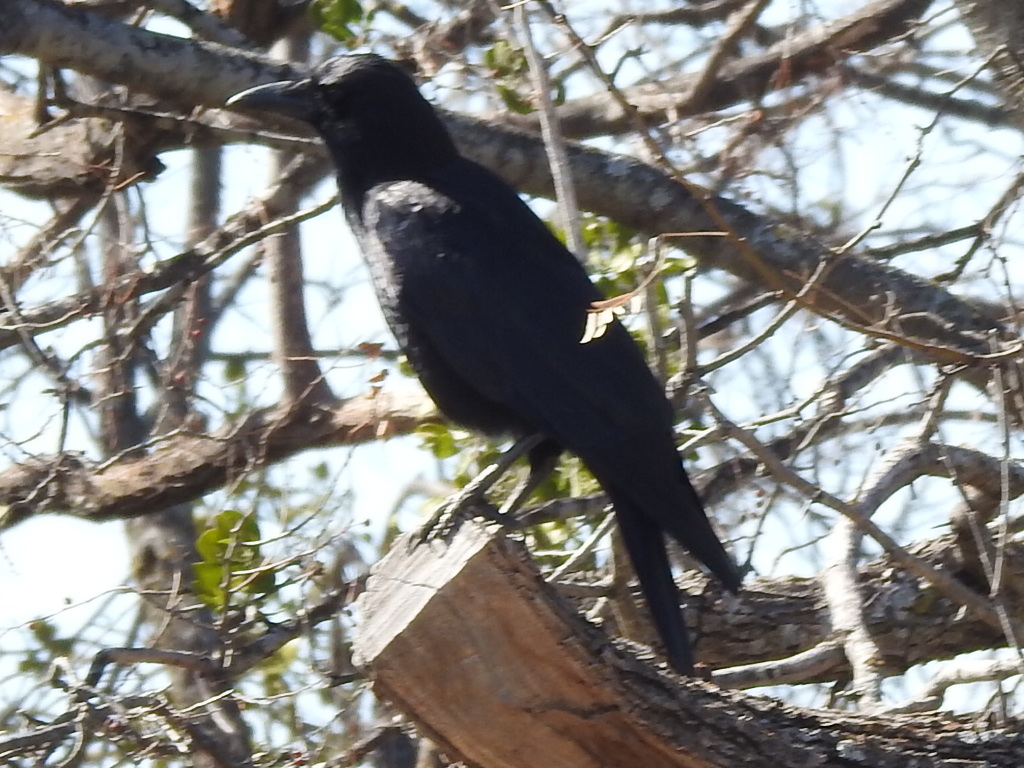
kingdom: Animalia
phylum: Chordata
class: Aves
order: Passeriformes
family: Corvidae
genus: Corvus
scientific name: Corvus brachyrhynchos
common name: American crow
